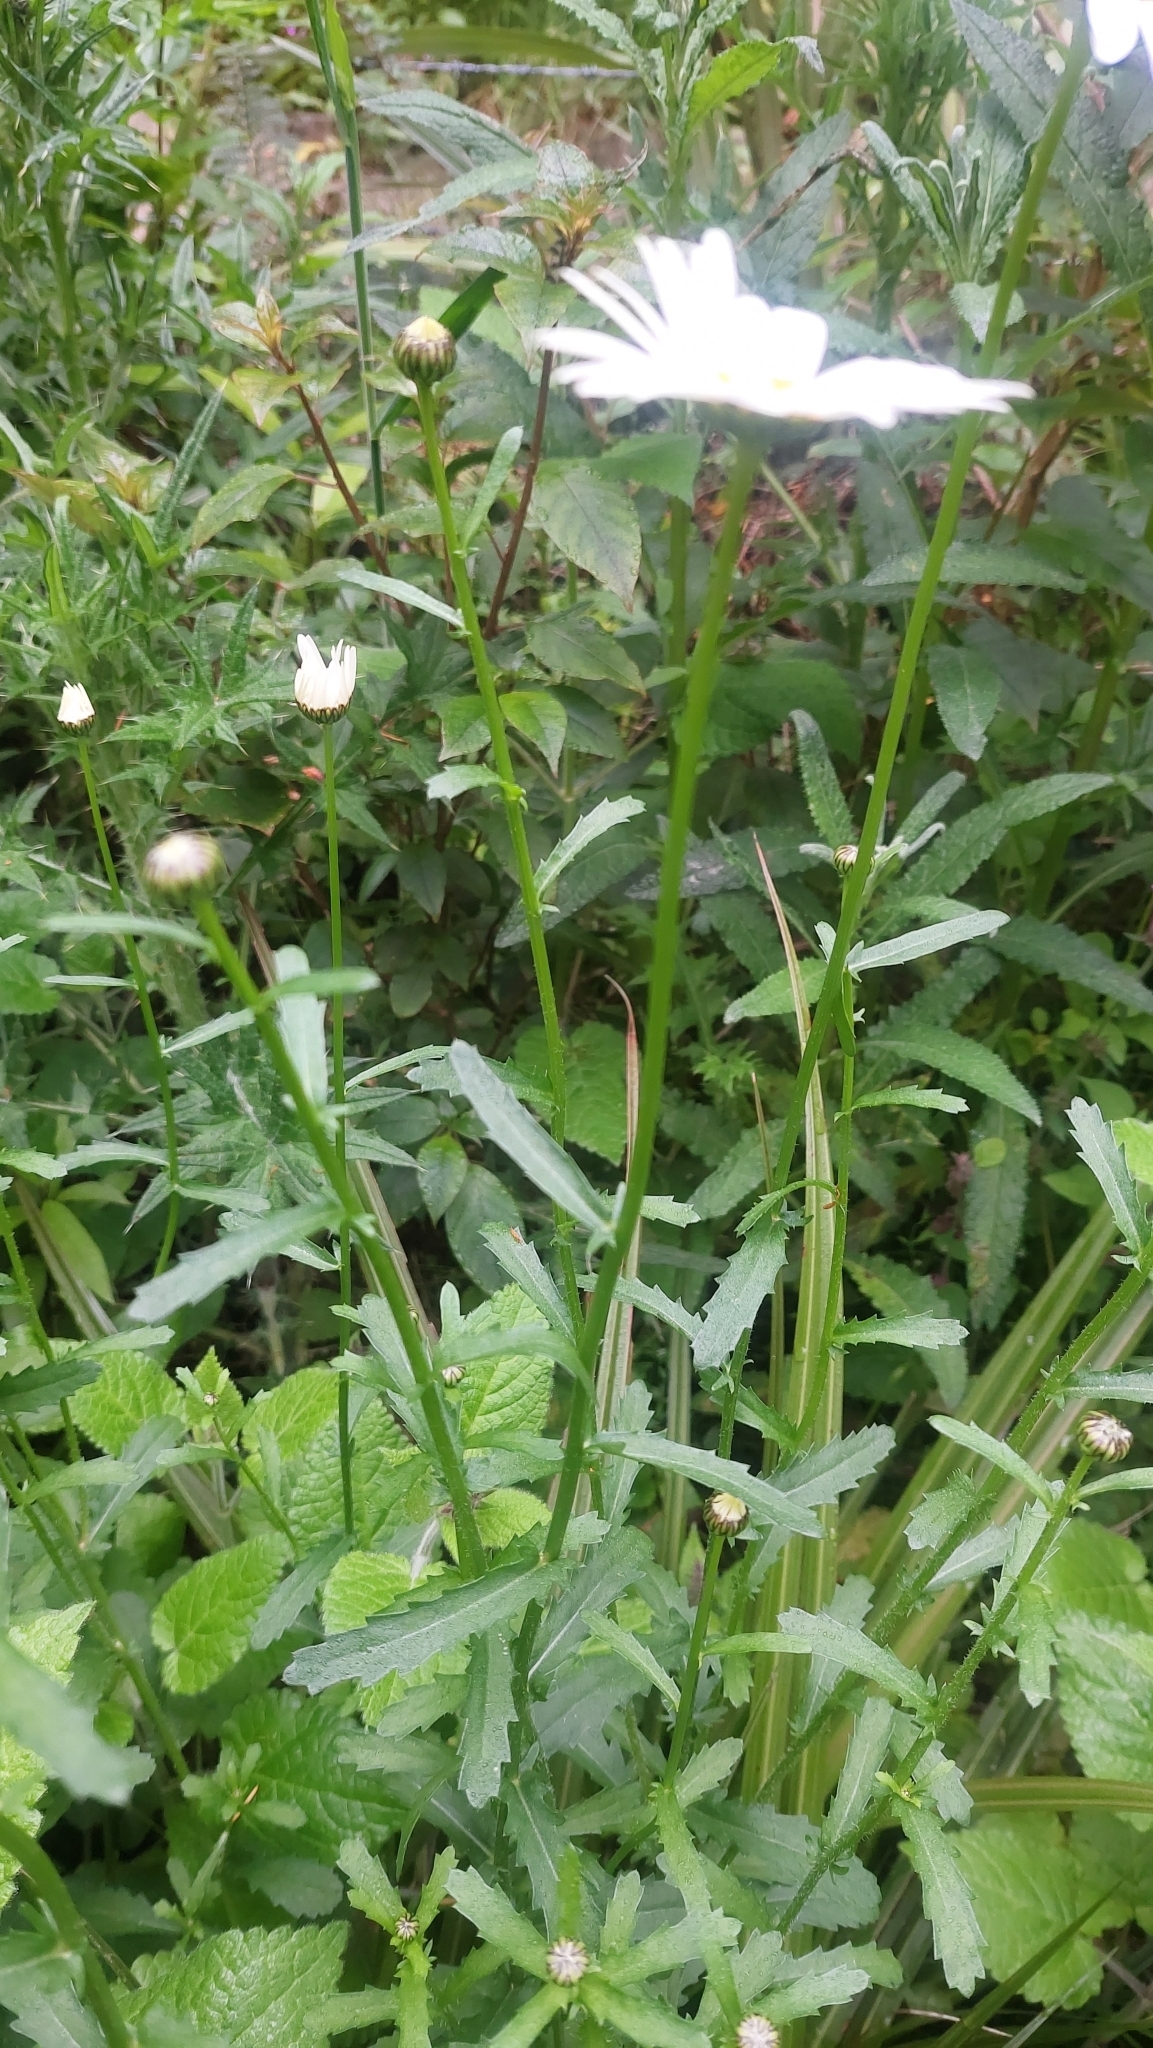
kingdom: Plantae
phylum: Tracheophyta
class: Magnoliopsida
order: Asterales
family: Asteraceae
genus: Leucanthemum
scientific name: Leucanthemum vulgare
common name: Oxeye daisy
